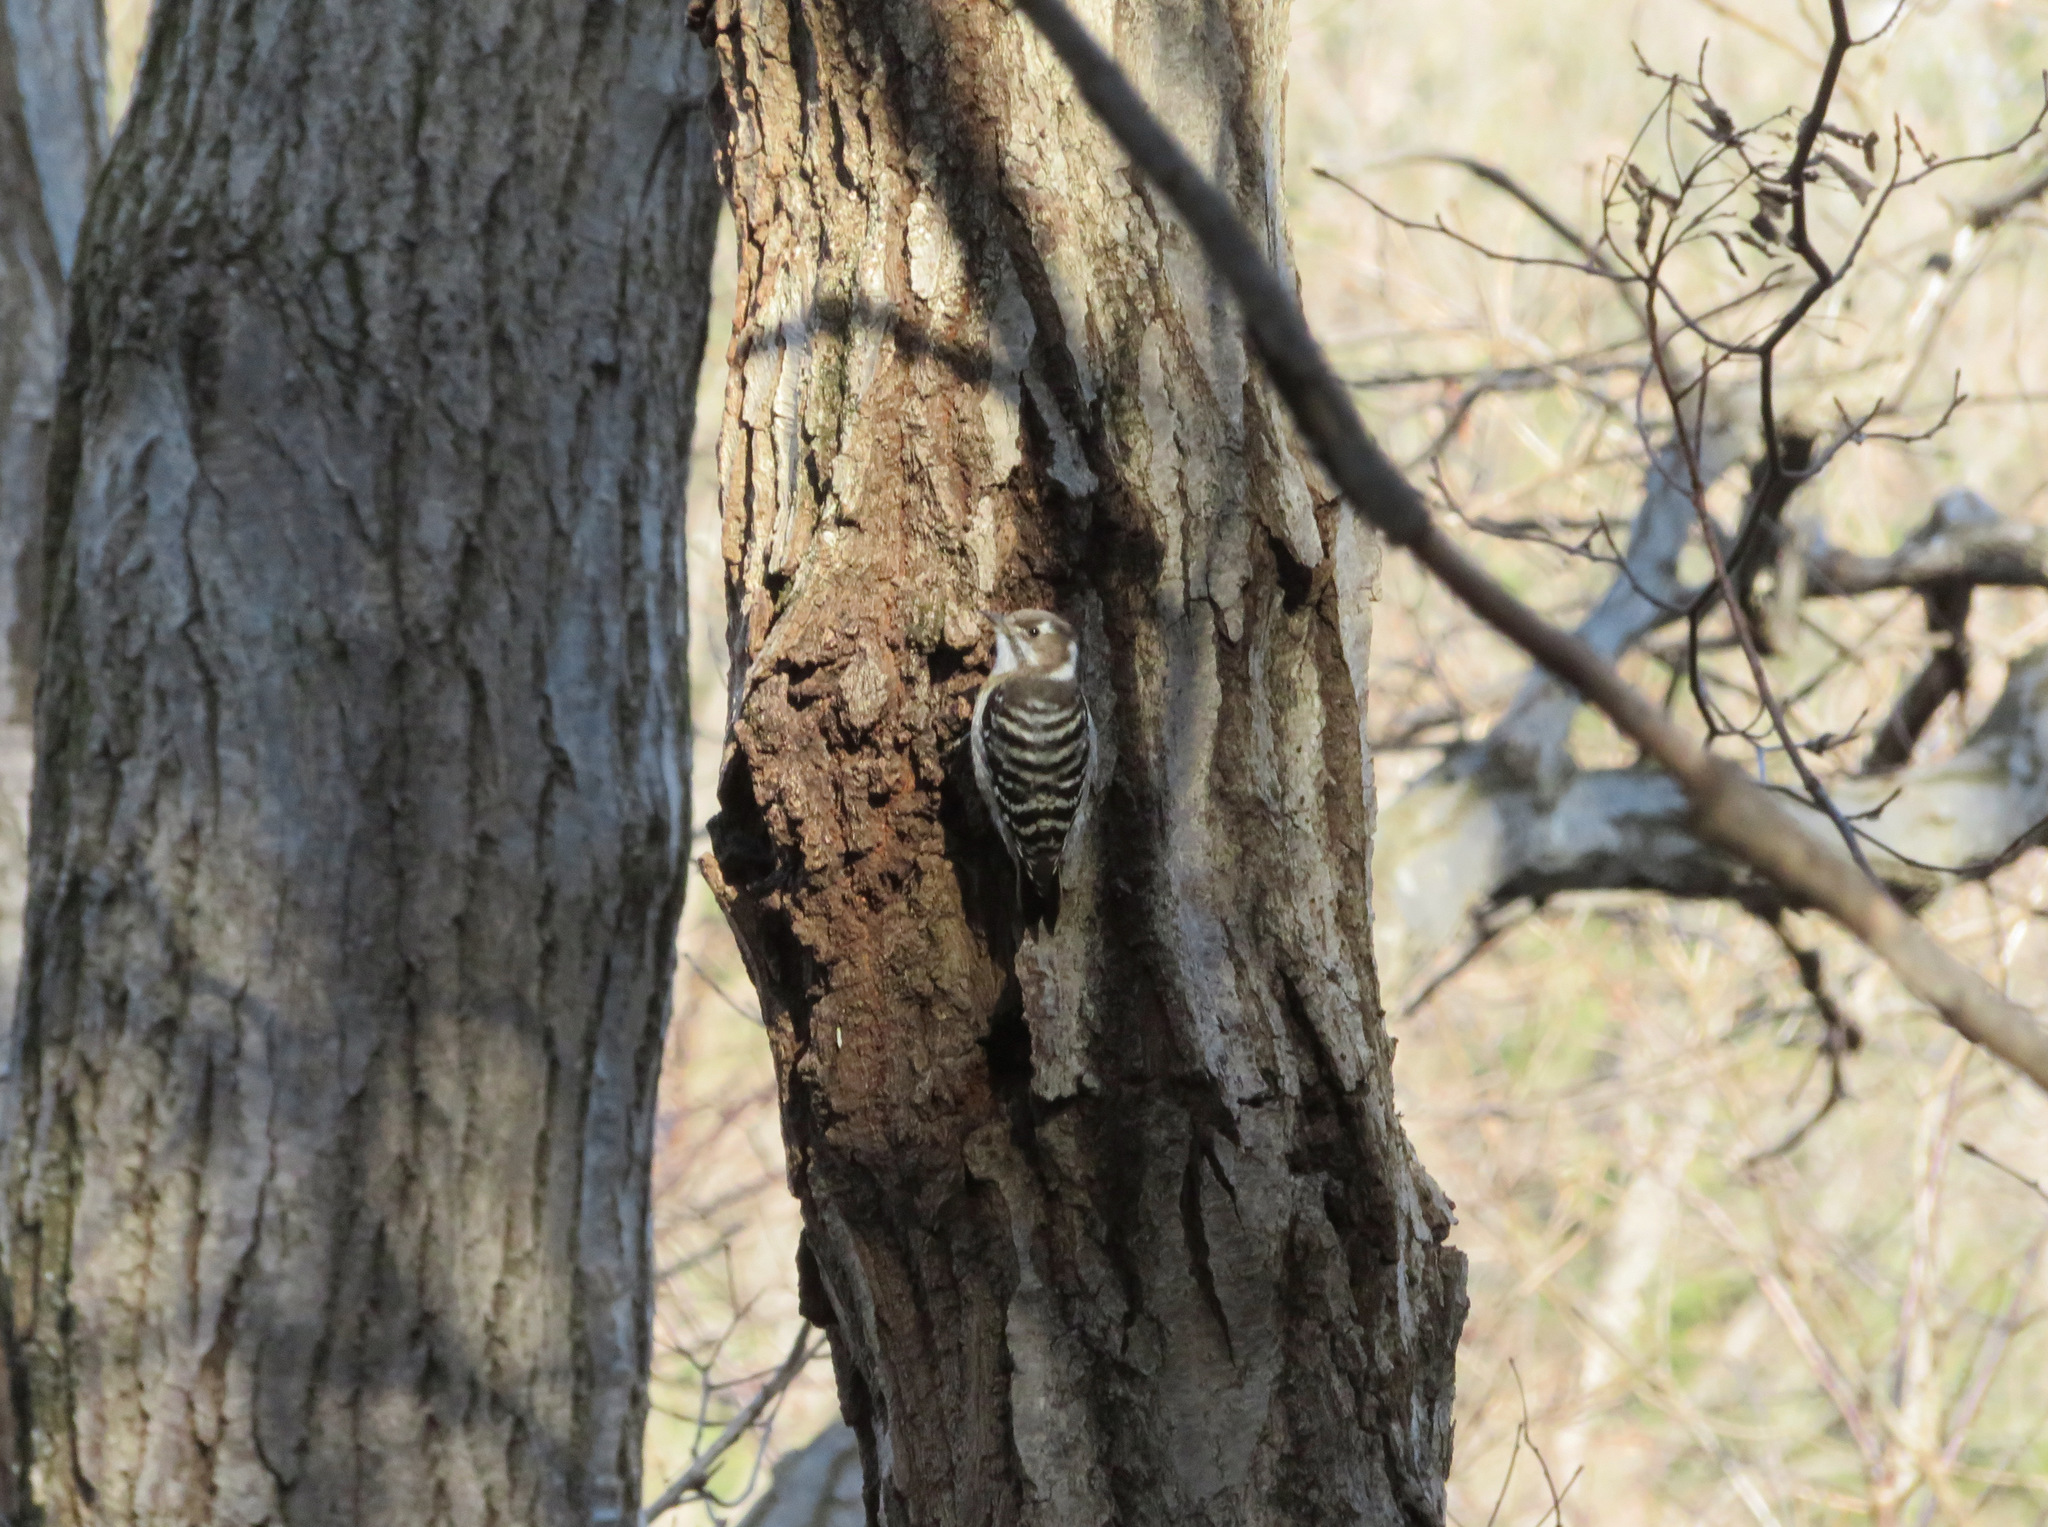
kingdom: Animalia
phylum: Chordata
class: Aves
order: Piciformes
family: Picidae
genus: Yungipicus
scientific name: Yungipicus kizuki
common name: Japanese pygmy woodpecker
